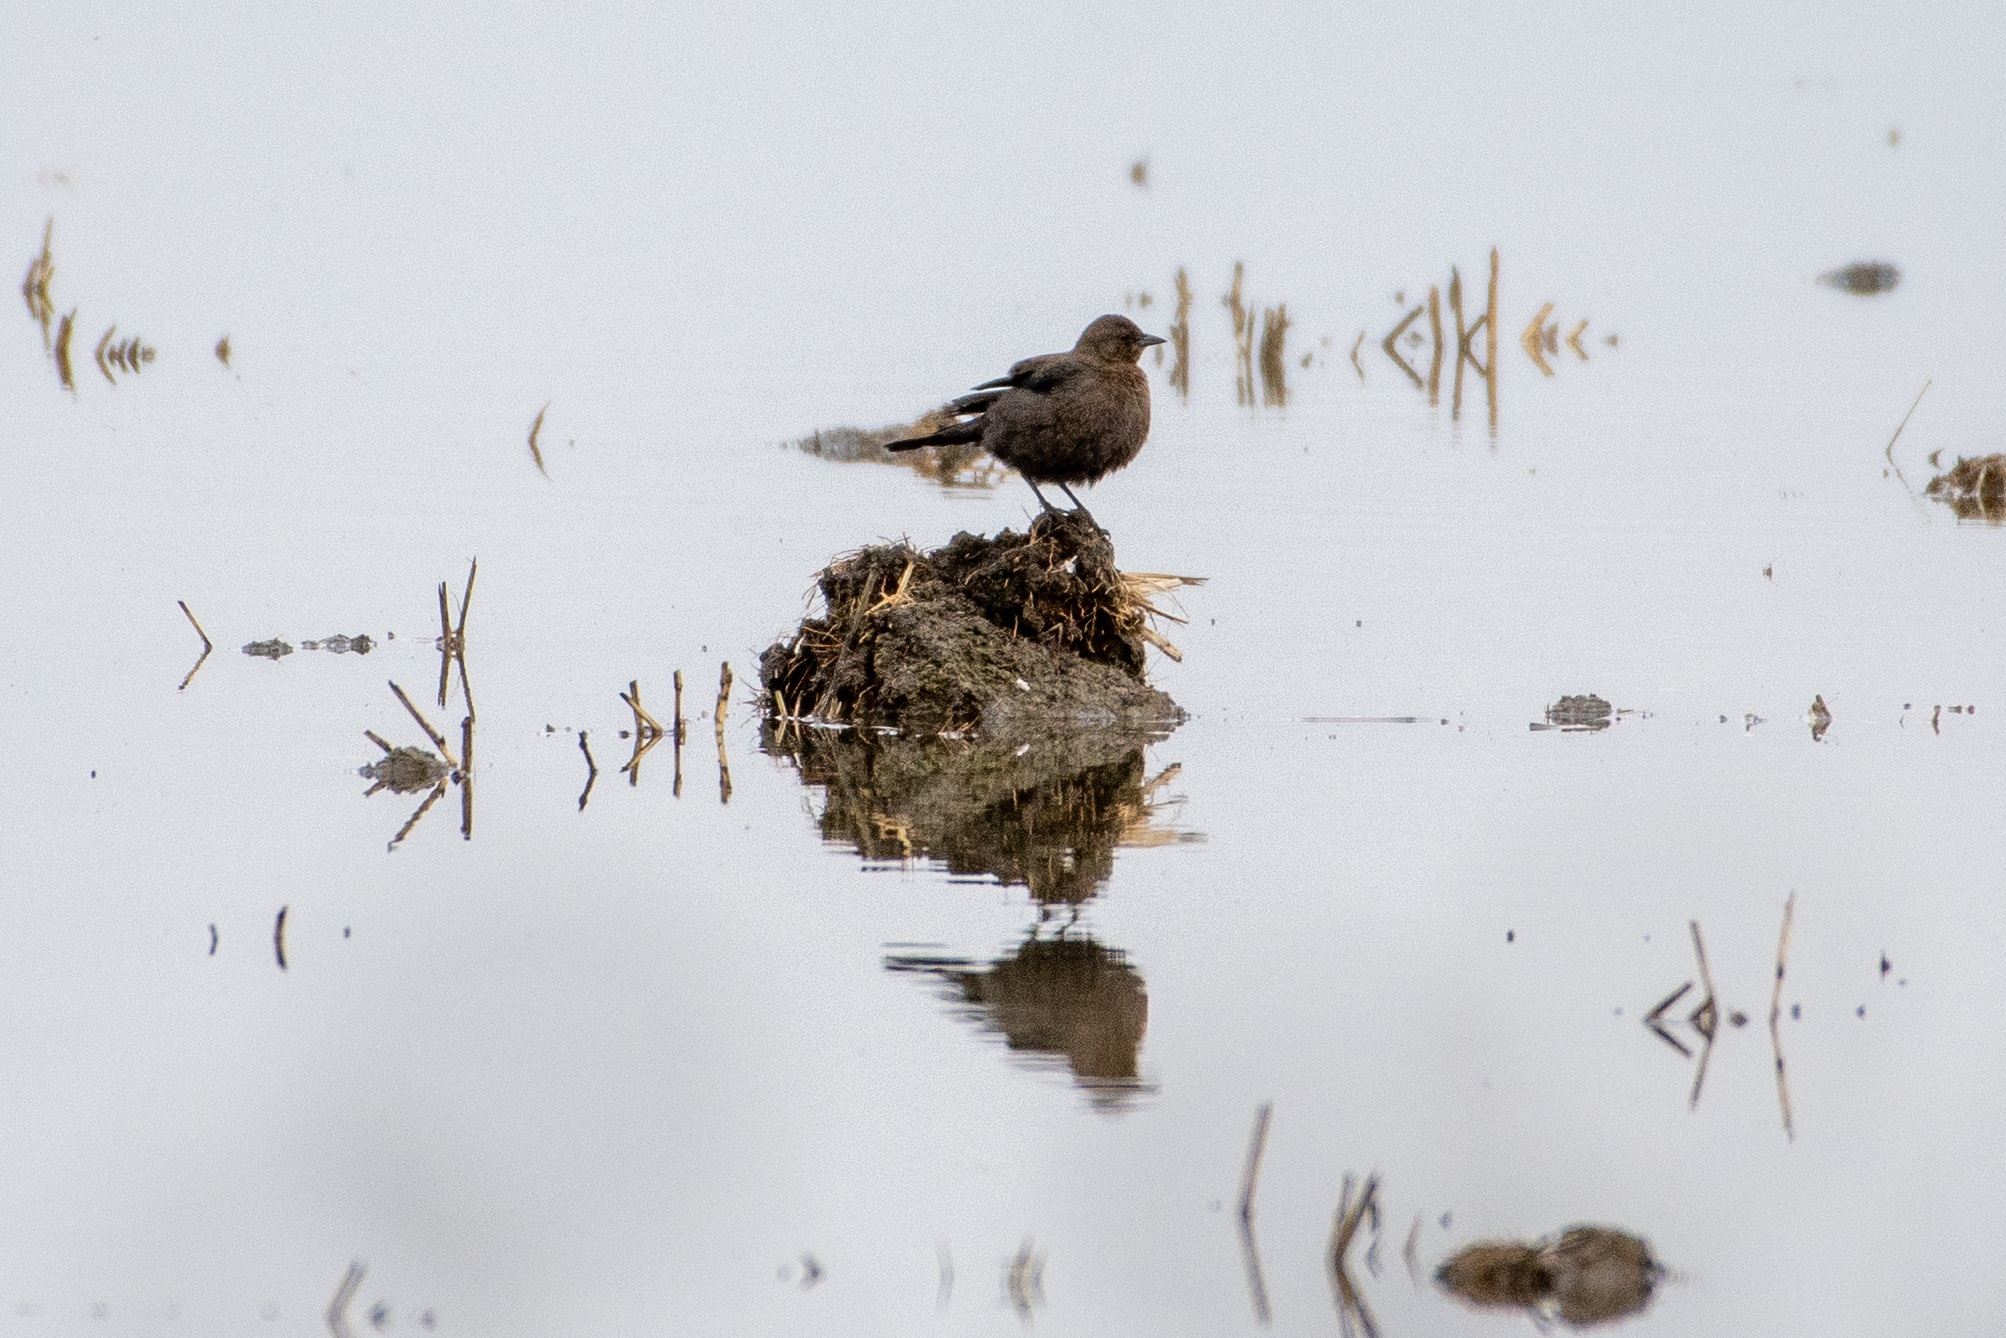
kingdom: Animalia
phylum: Chordata
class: Aves
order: Passeriformes
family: Icteridae
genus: Euphagus
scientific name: Euphagus cyanocephalus
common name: Brewer's blackbird
